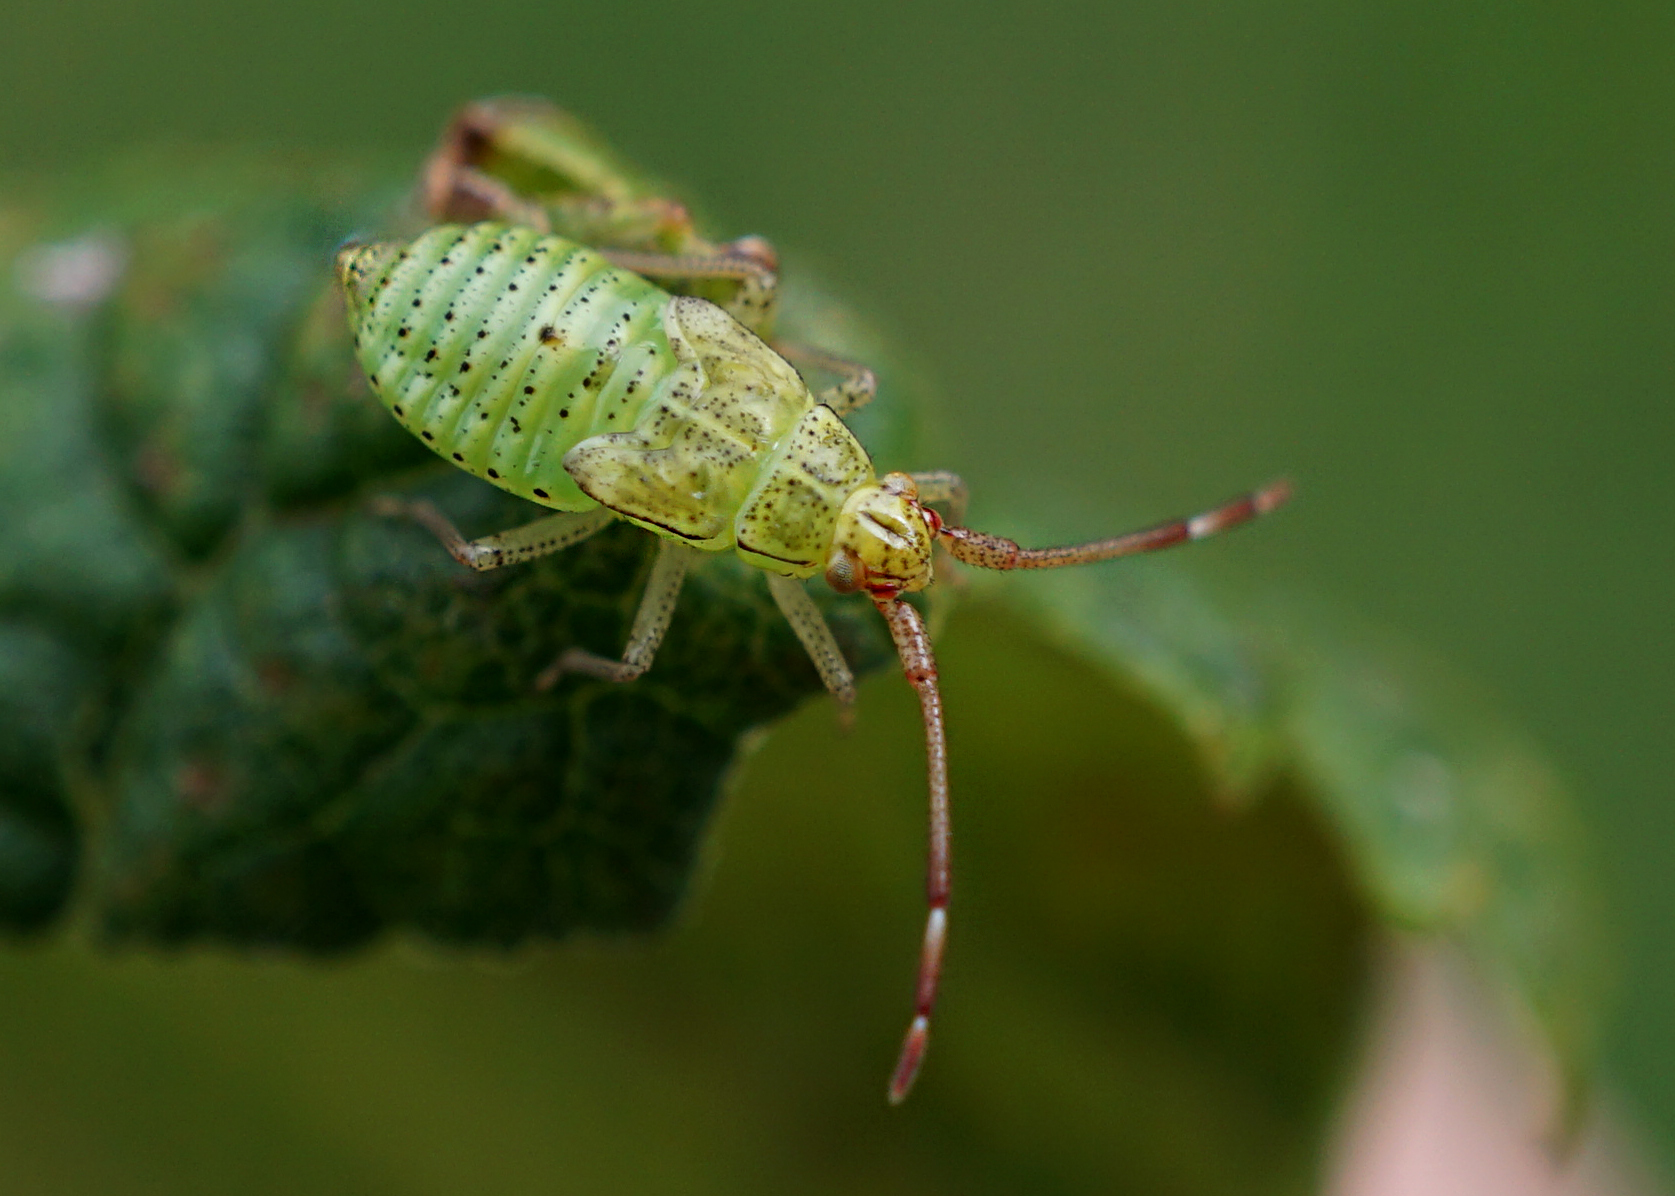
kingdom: Animalia
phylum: Arthropoda
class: Insecta
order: Hemiptera
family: Miridae
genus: Pantilius
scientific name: Pantilius tunicatus
